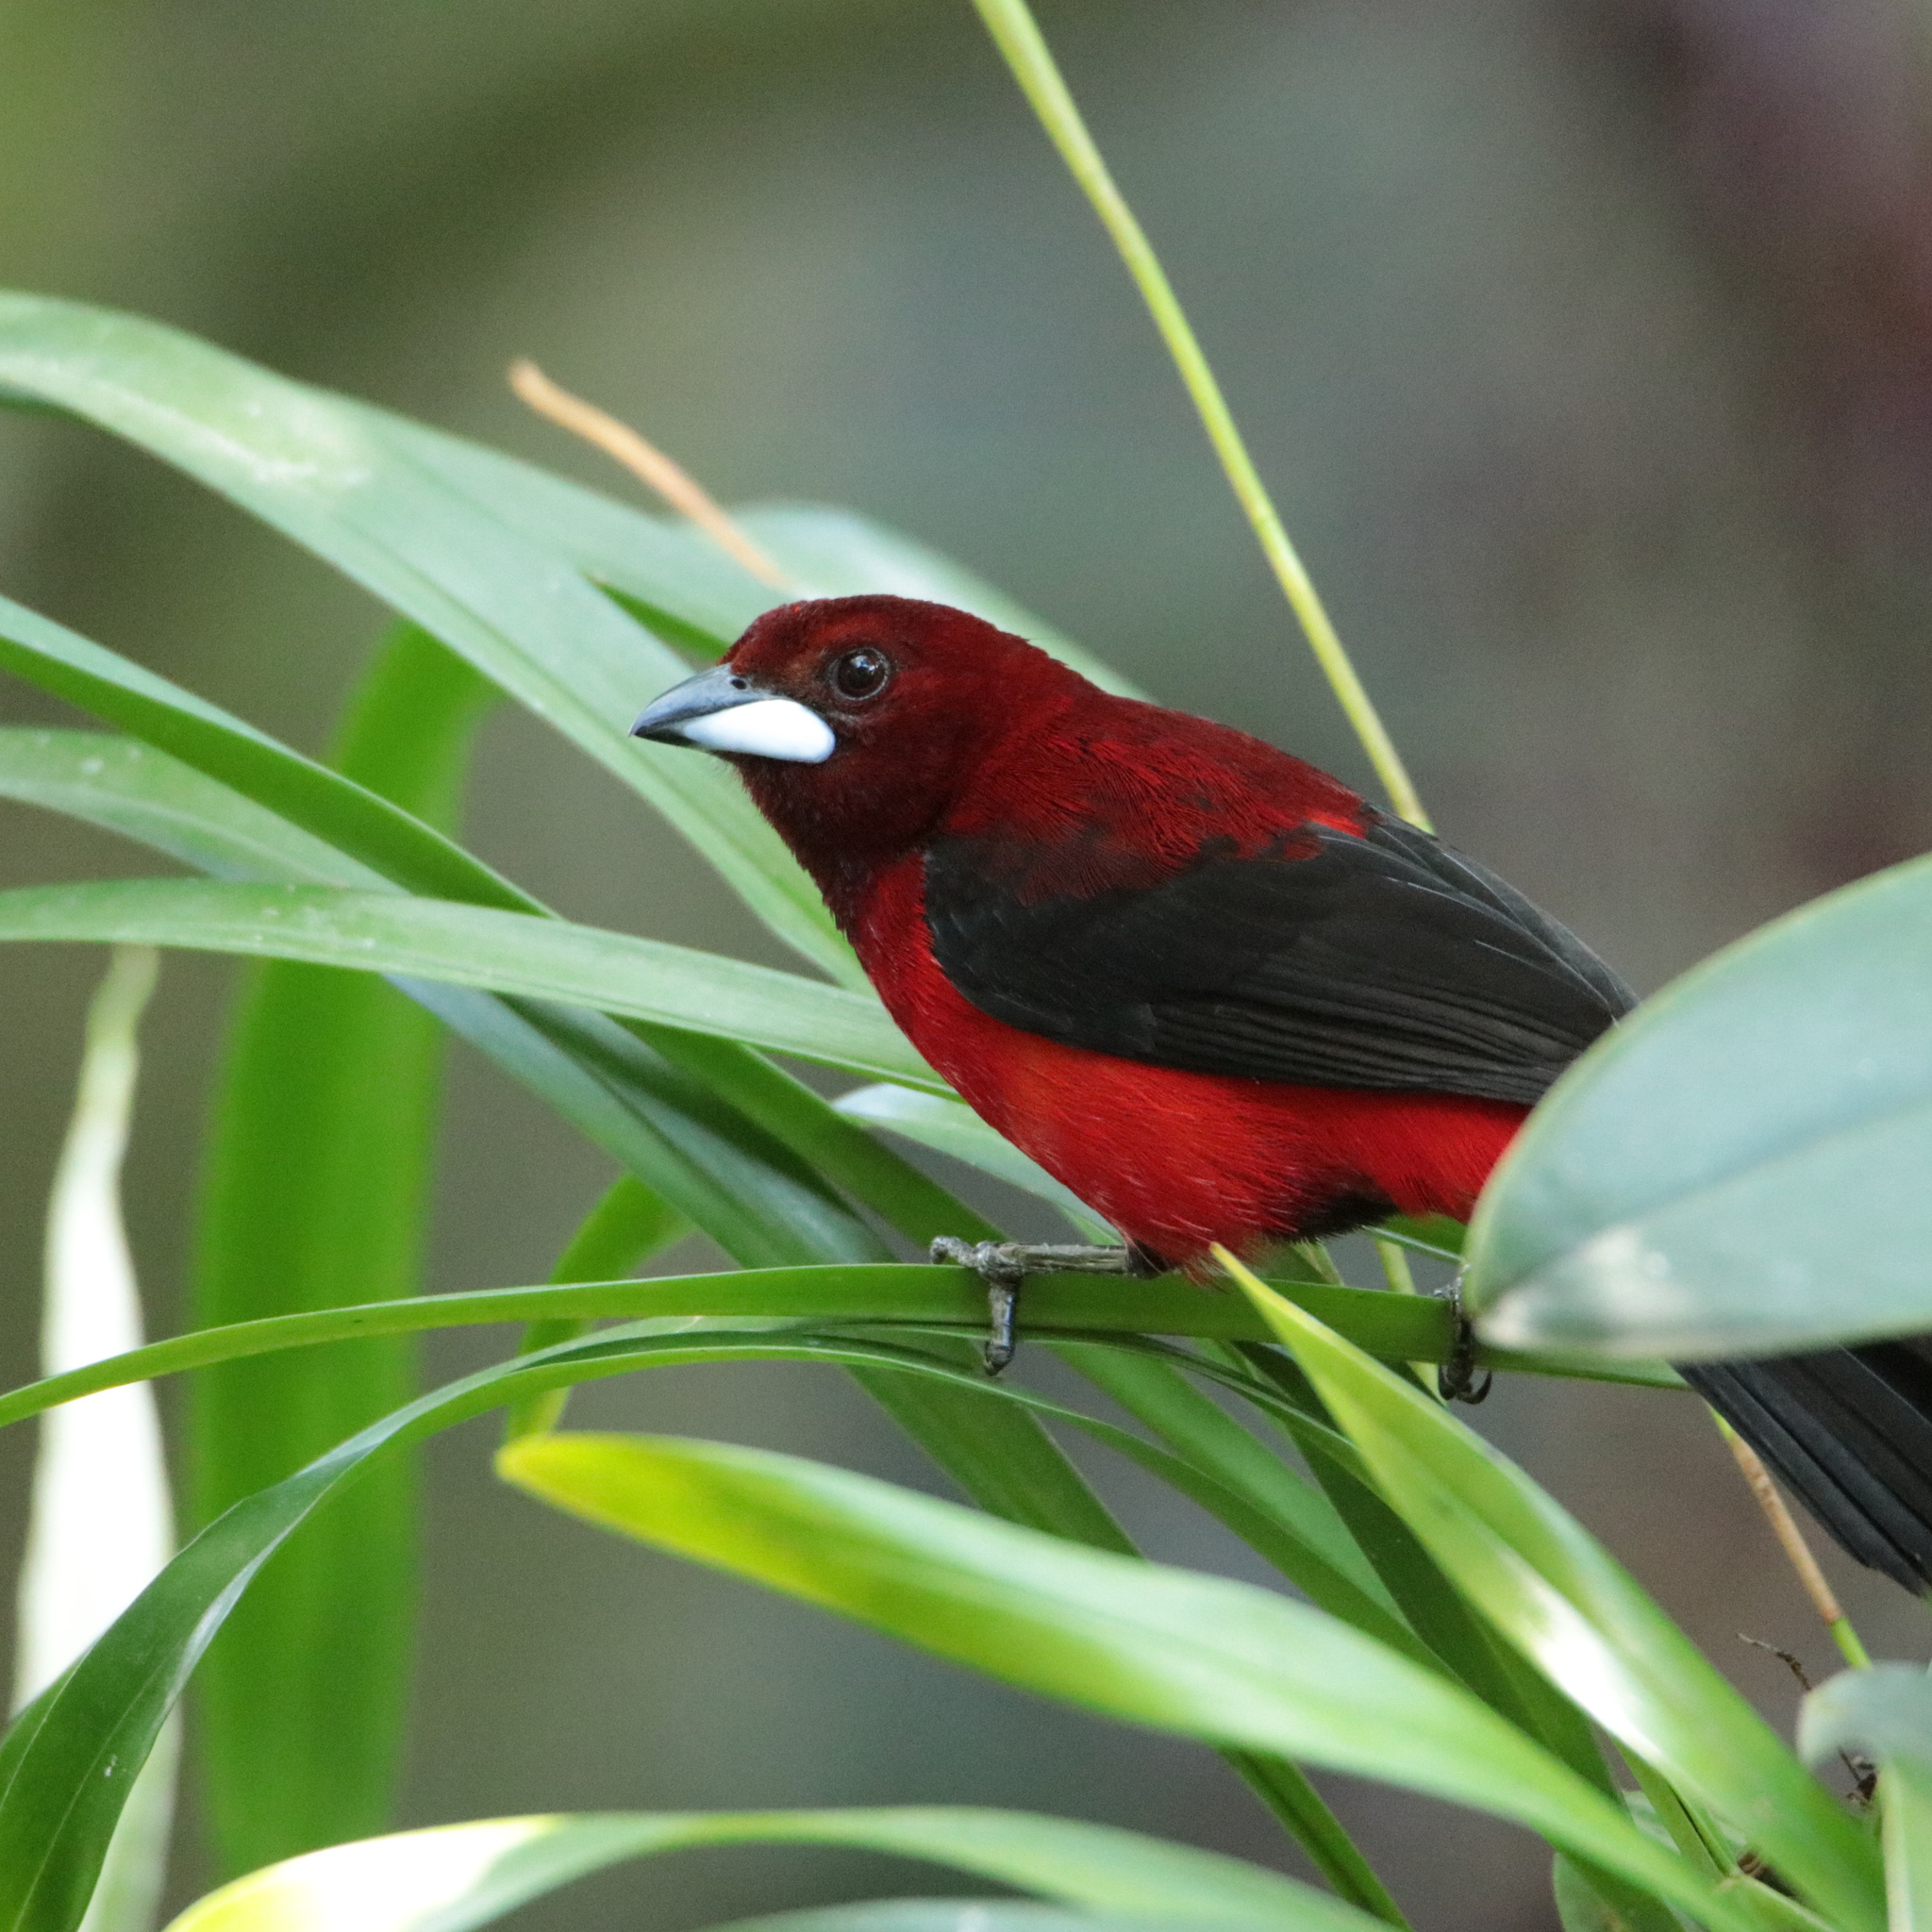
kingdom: Animalia
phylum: Chordata
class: Aves
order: Passeriformes
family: Thraupidae
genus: Ramphocelus
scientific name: Ramphocelus dimidiatus
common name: Crimson-backed tanager
